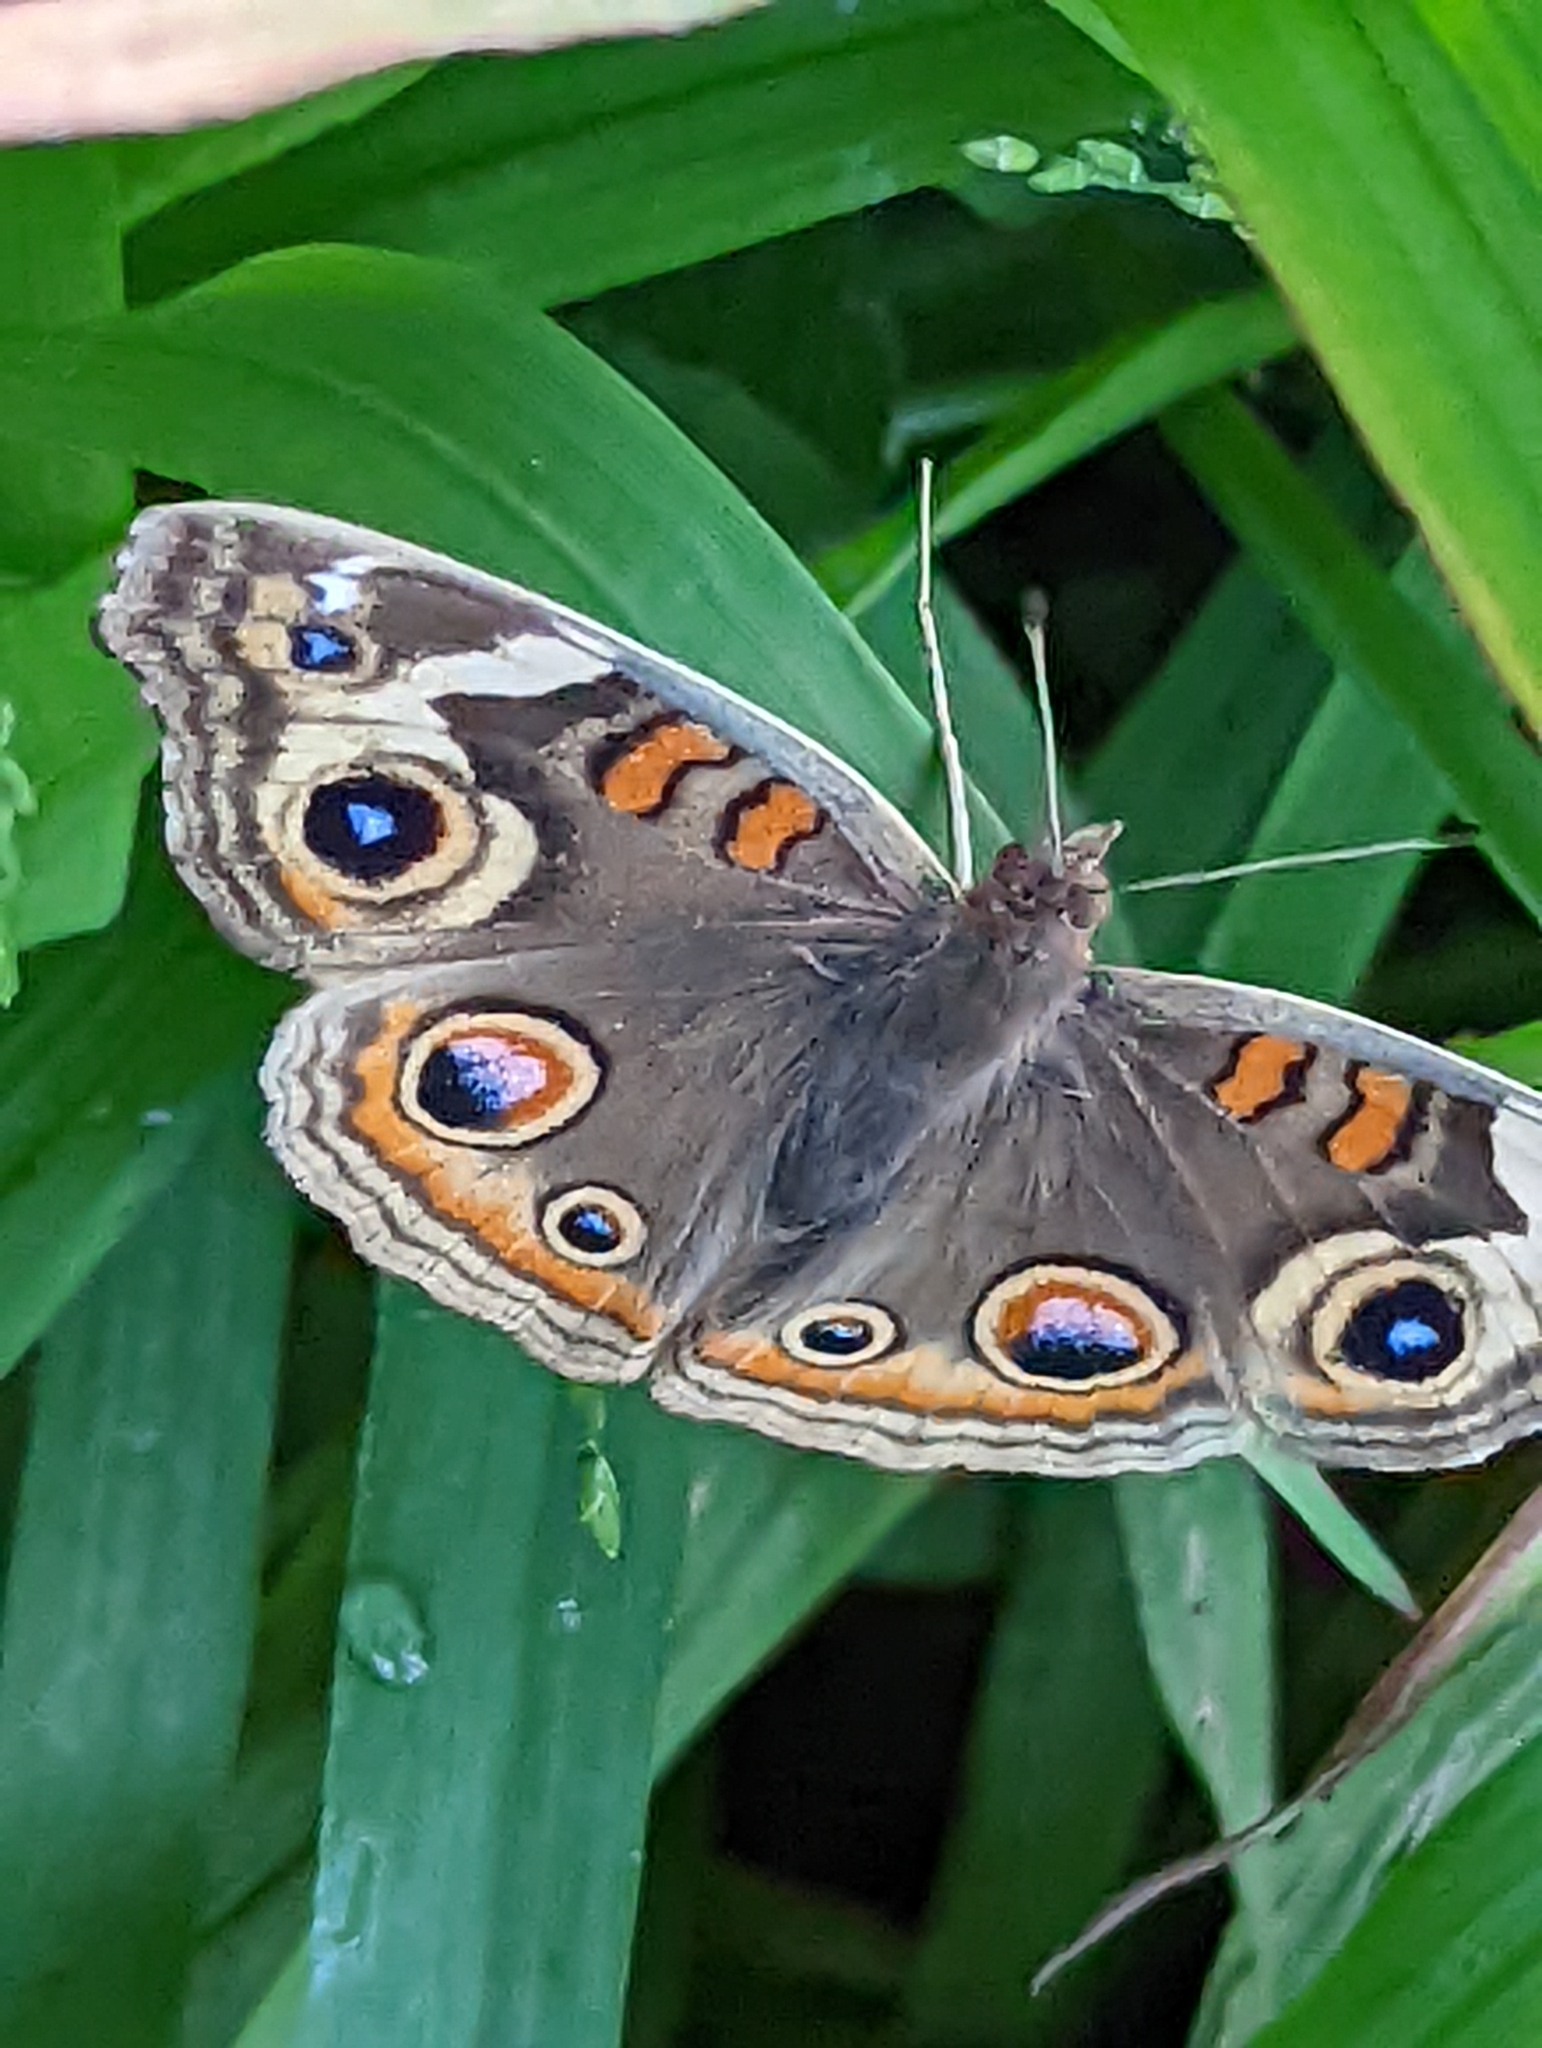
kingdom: Animalia
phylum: Arthropoda
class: Insecta
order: Lepidoptera
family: Nymphalidae
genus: Junonia
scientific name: Junonia grisea
